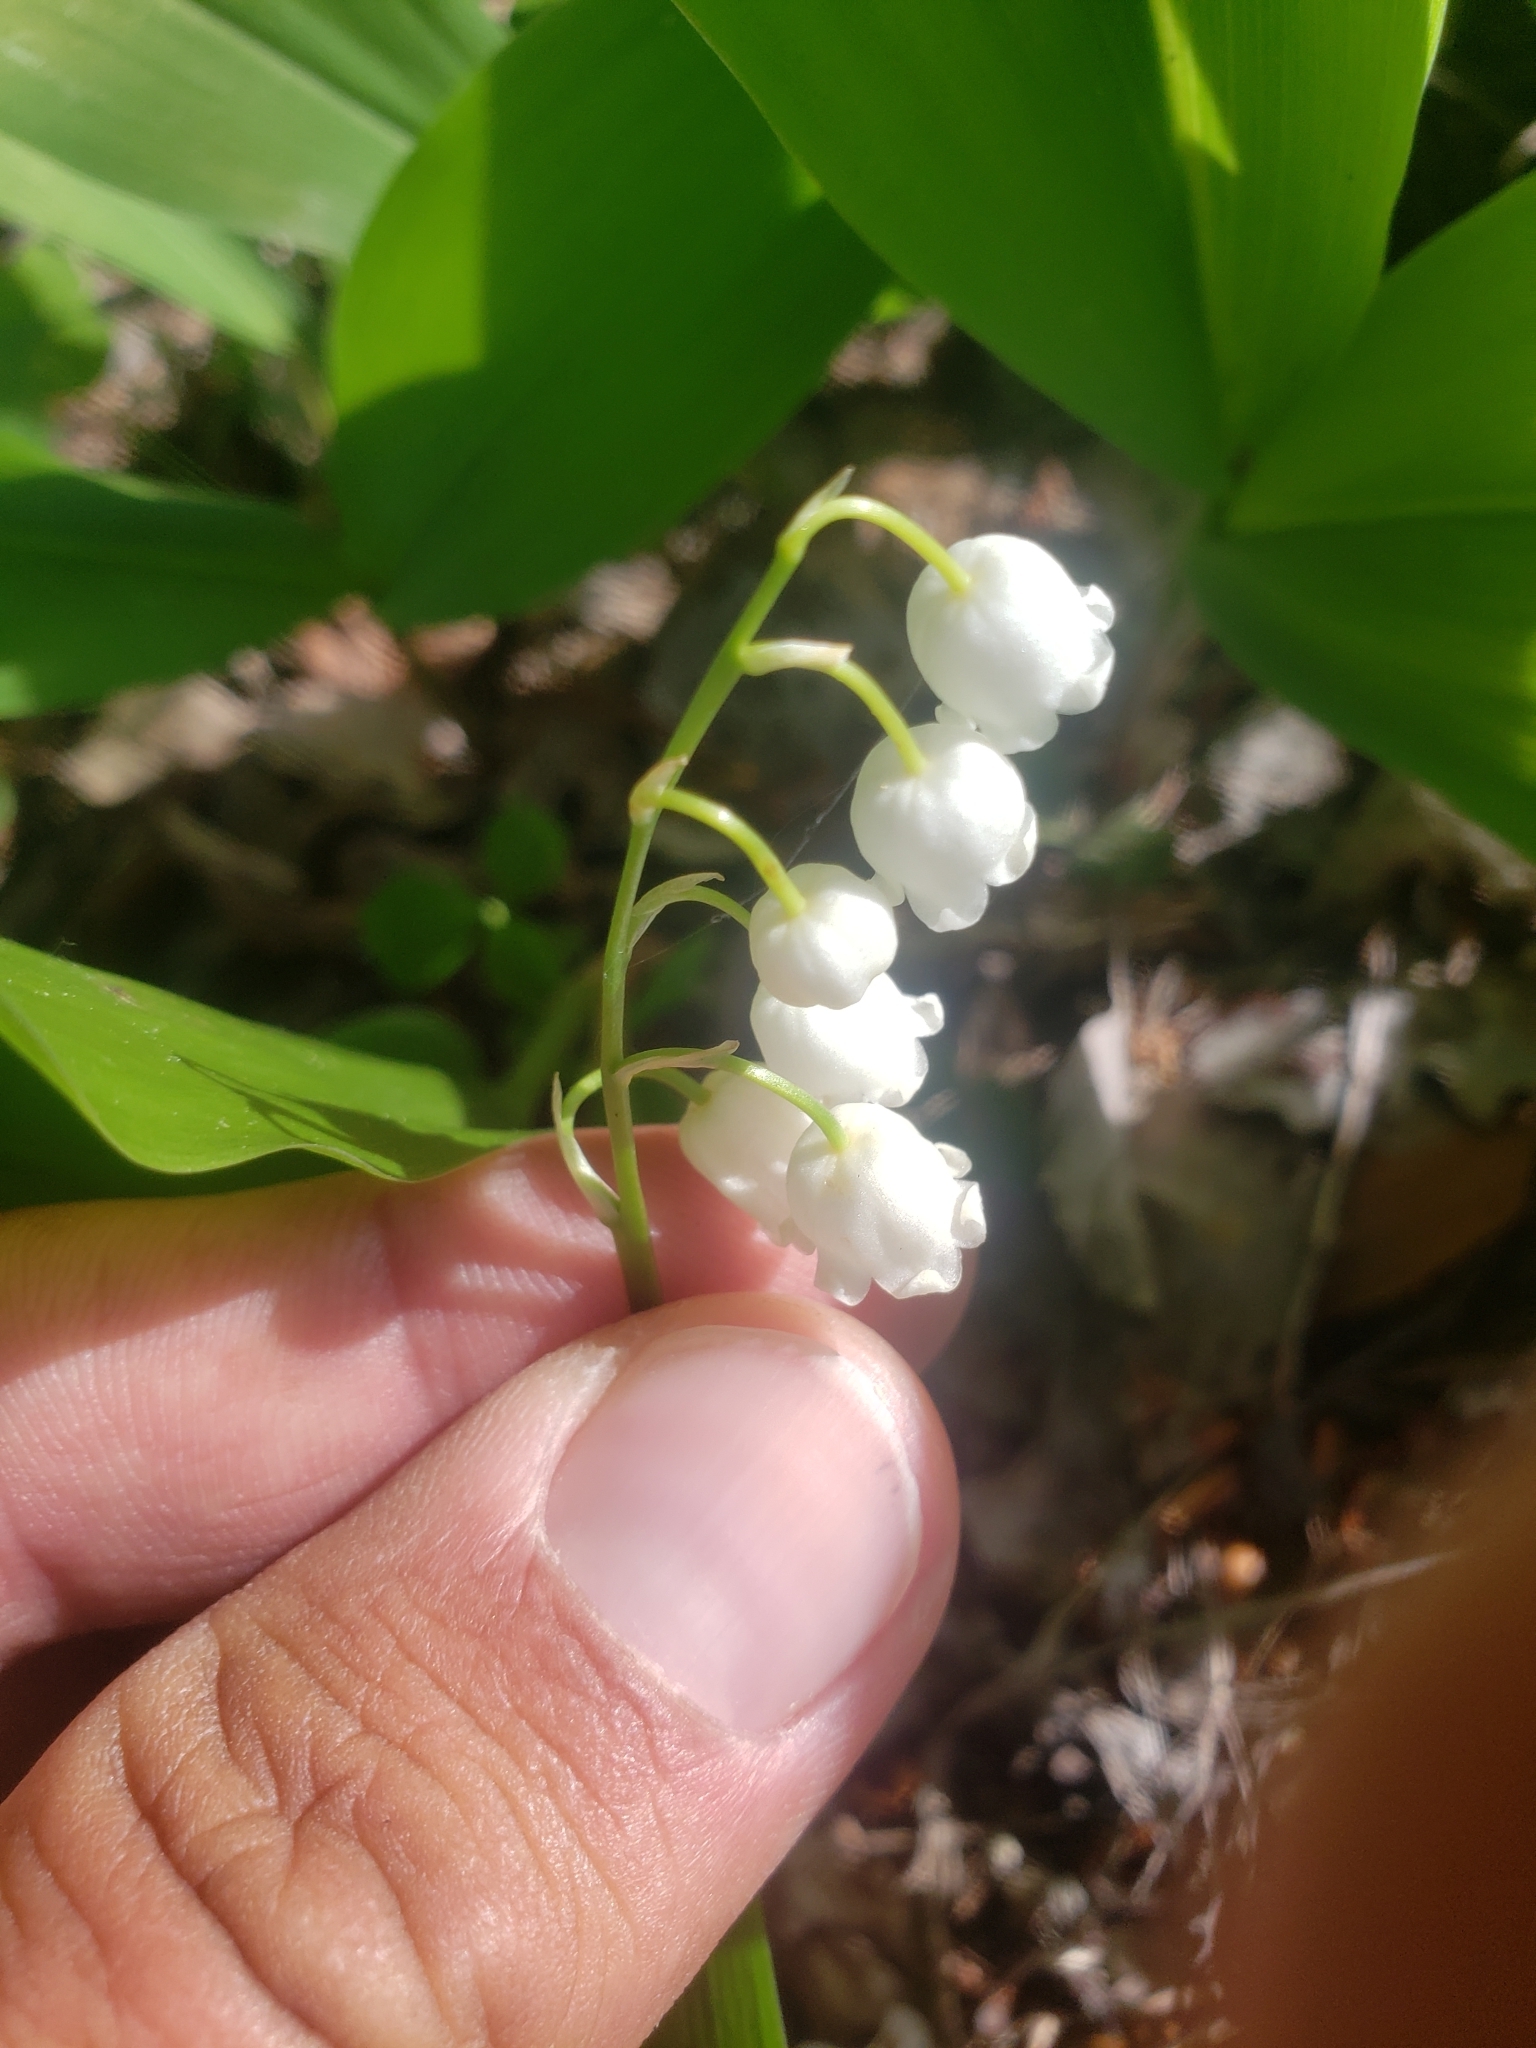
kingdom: Plantae
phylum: Tracheophyta
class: Liliopsida
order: Asparagales
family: Asparagaceae
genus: Convallaria
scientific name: Convallaria majalis
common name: Lily-of-the-valley
